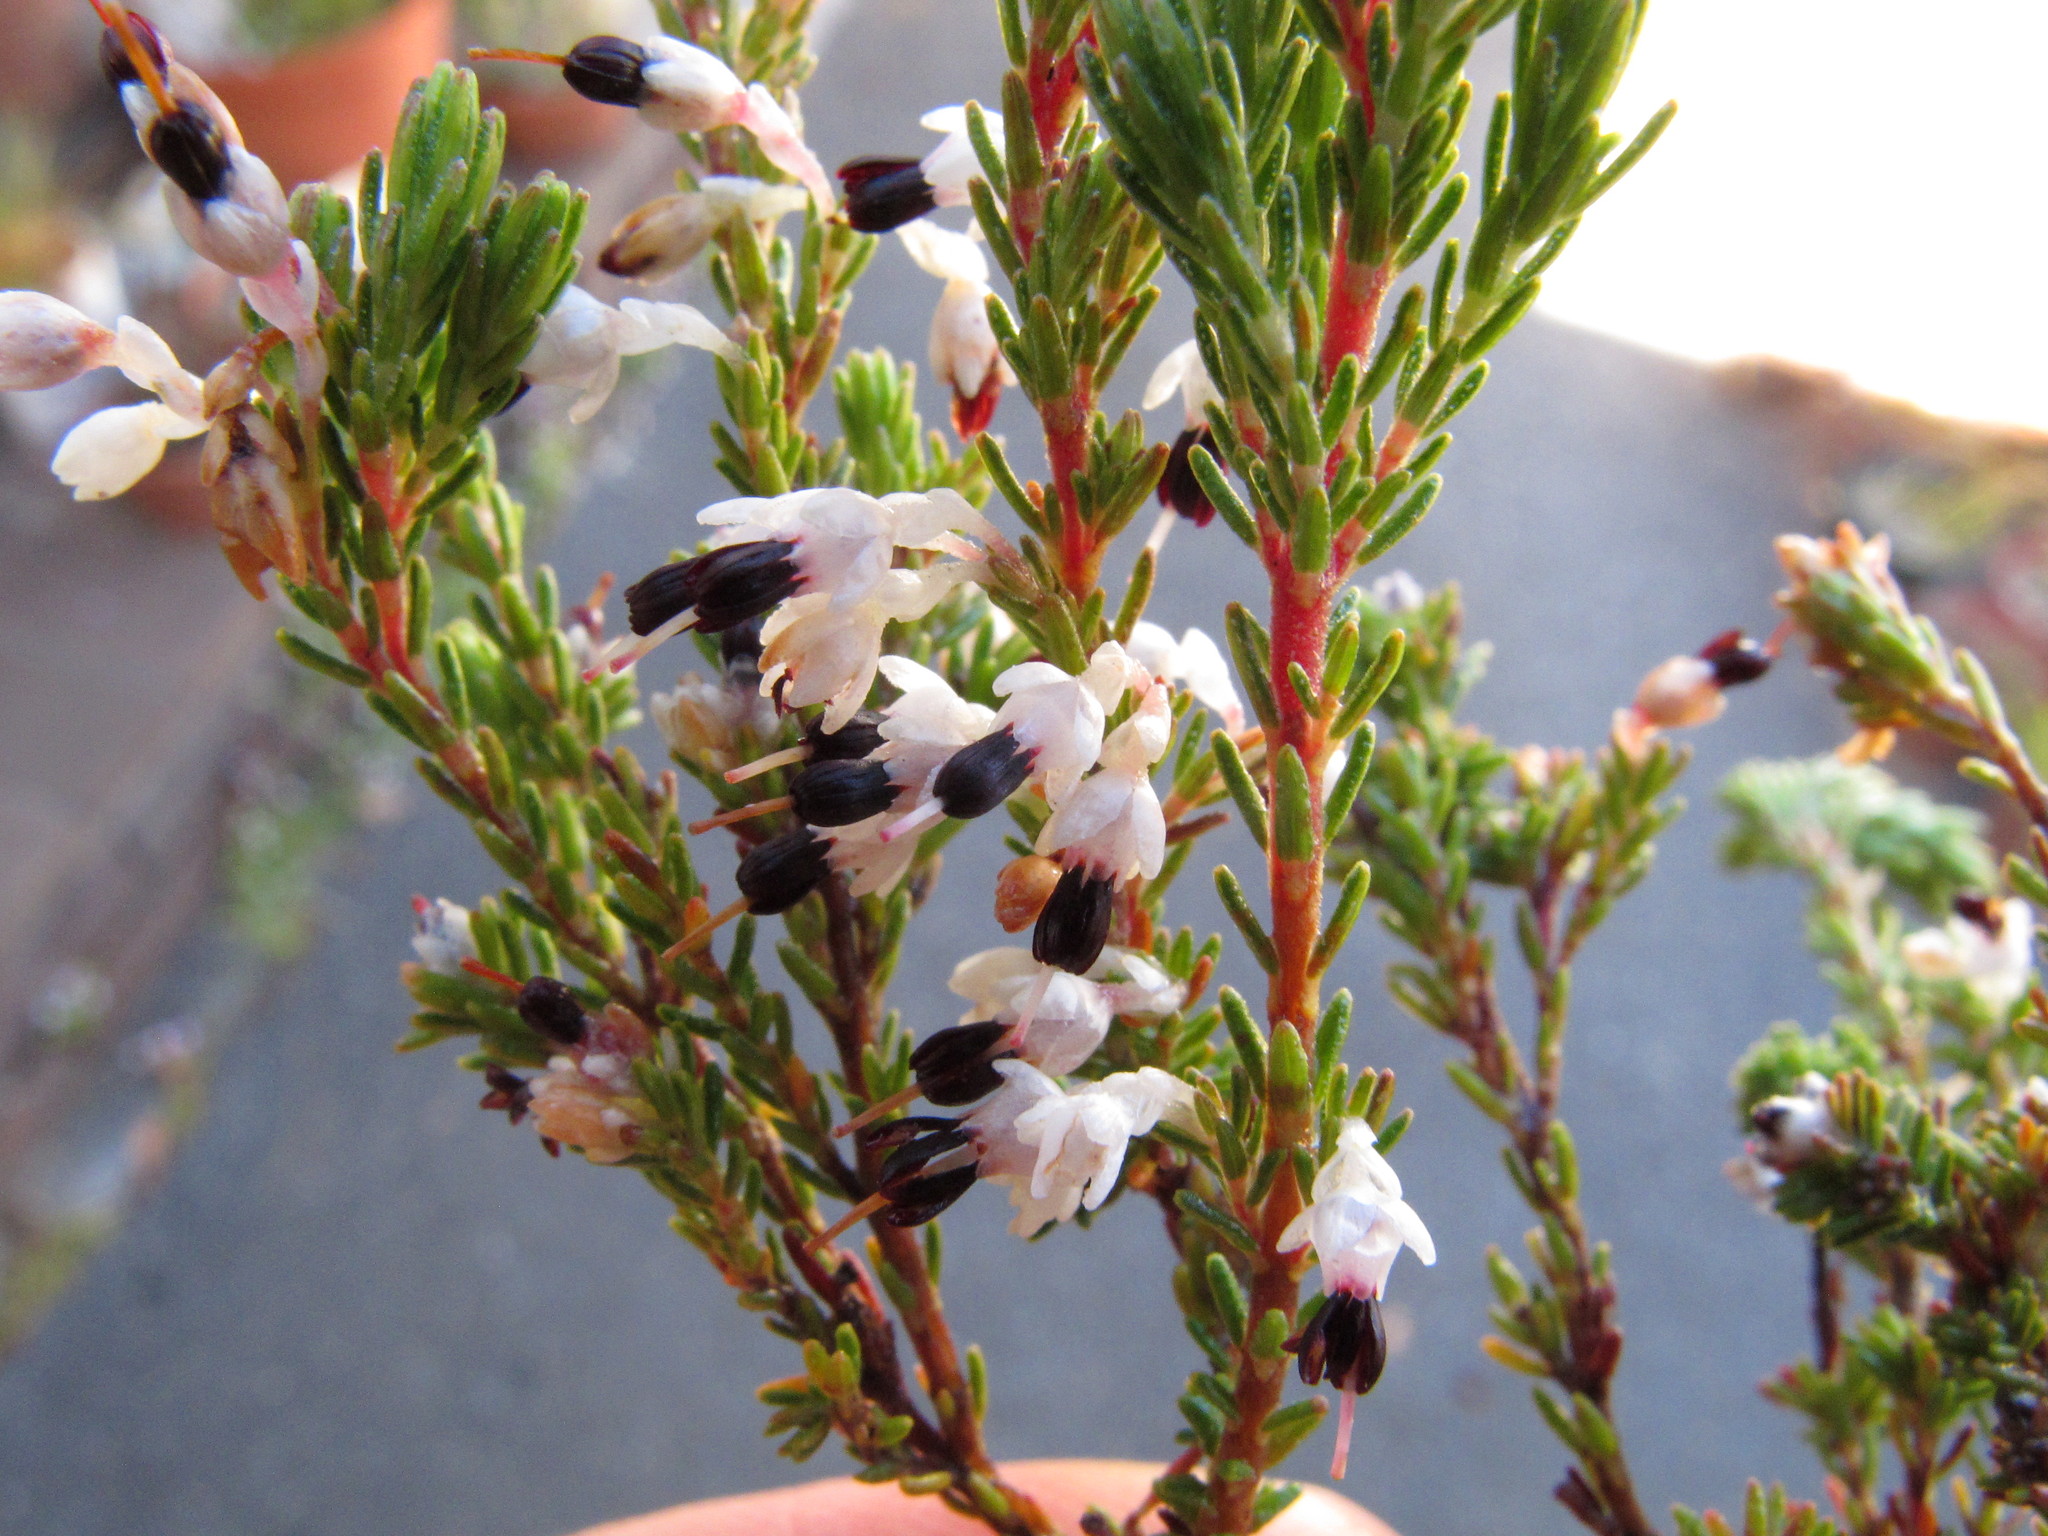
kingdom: Plantae
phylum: Tracheophyta
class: Magnoliopsida
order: Ericales
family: Ericaceae
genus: Erica
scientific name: Erica imbricata
